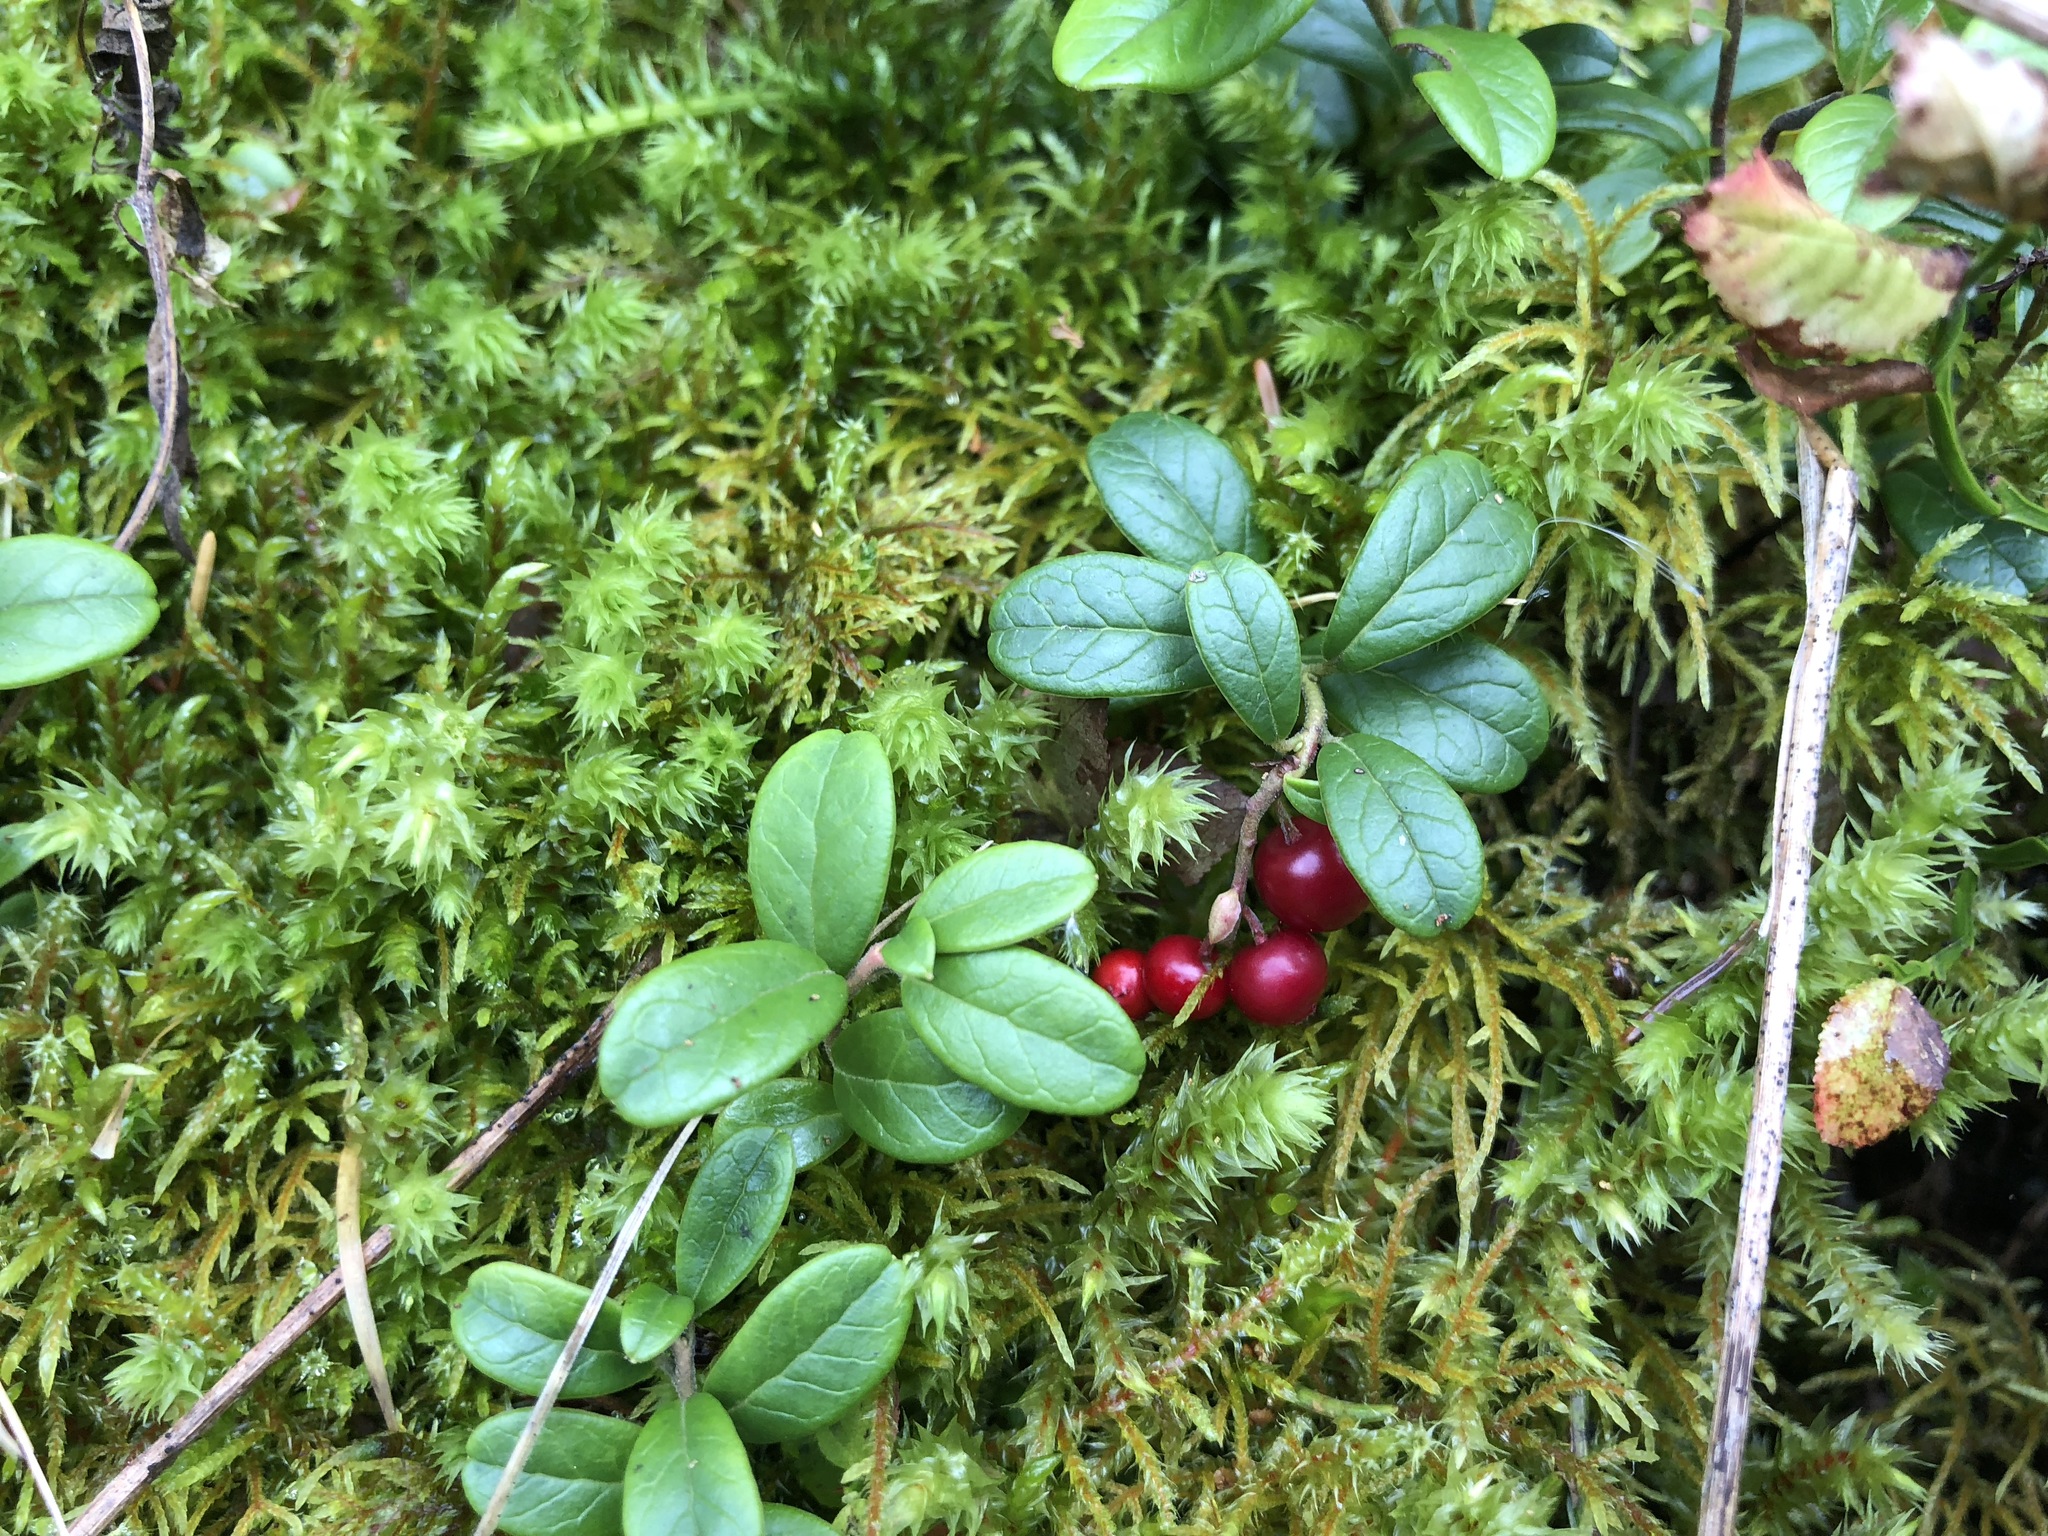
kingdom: Plantae
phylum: Tracheophyta
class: Magnoliopsida
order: Ericales
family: Ericaceae
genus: Vaccinium
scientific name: Vaccinium vitis-idaea
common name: Cowberry
